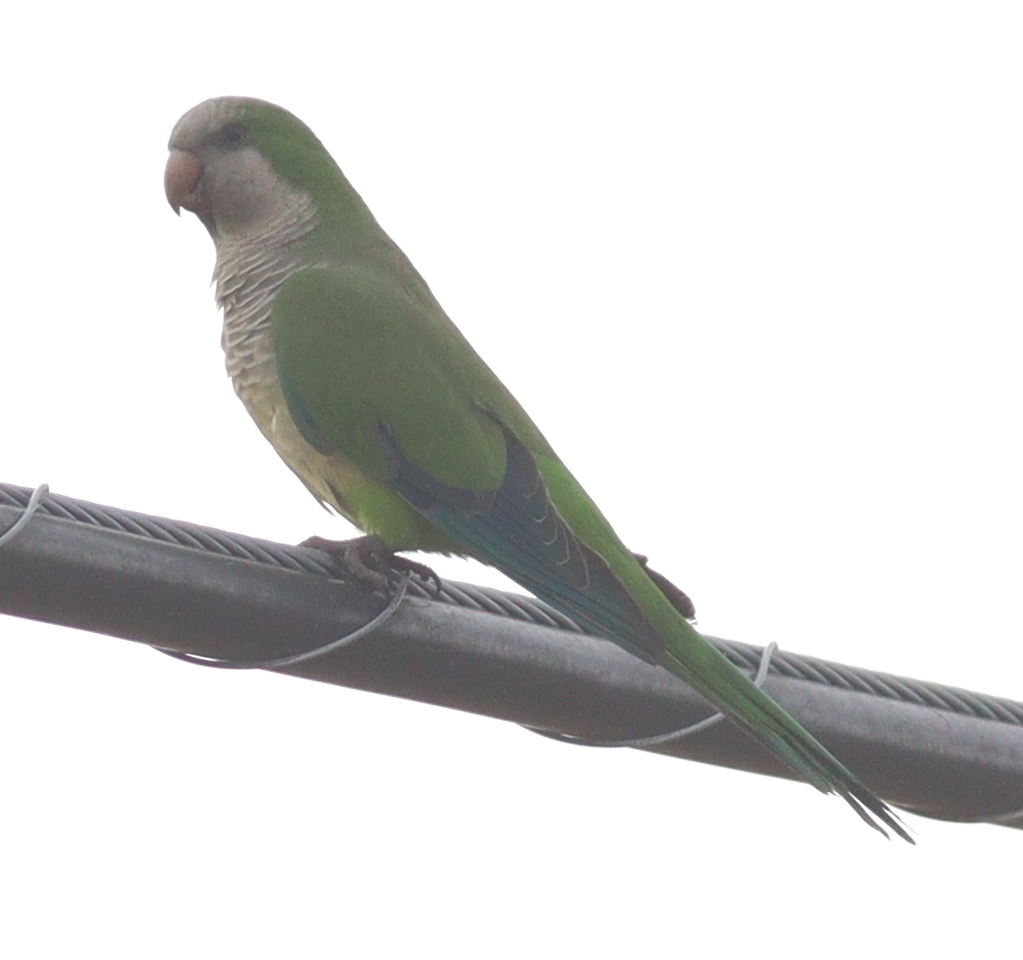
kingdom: Animalia
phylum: Chordata
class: Aves
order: Psittaciformes
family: Psittacidae
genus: Myiopsitta
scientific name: Myiopsitta monachus
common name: Monk parakeet
